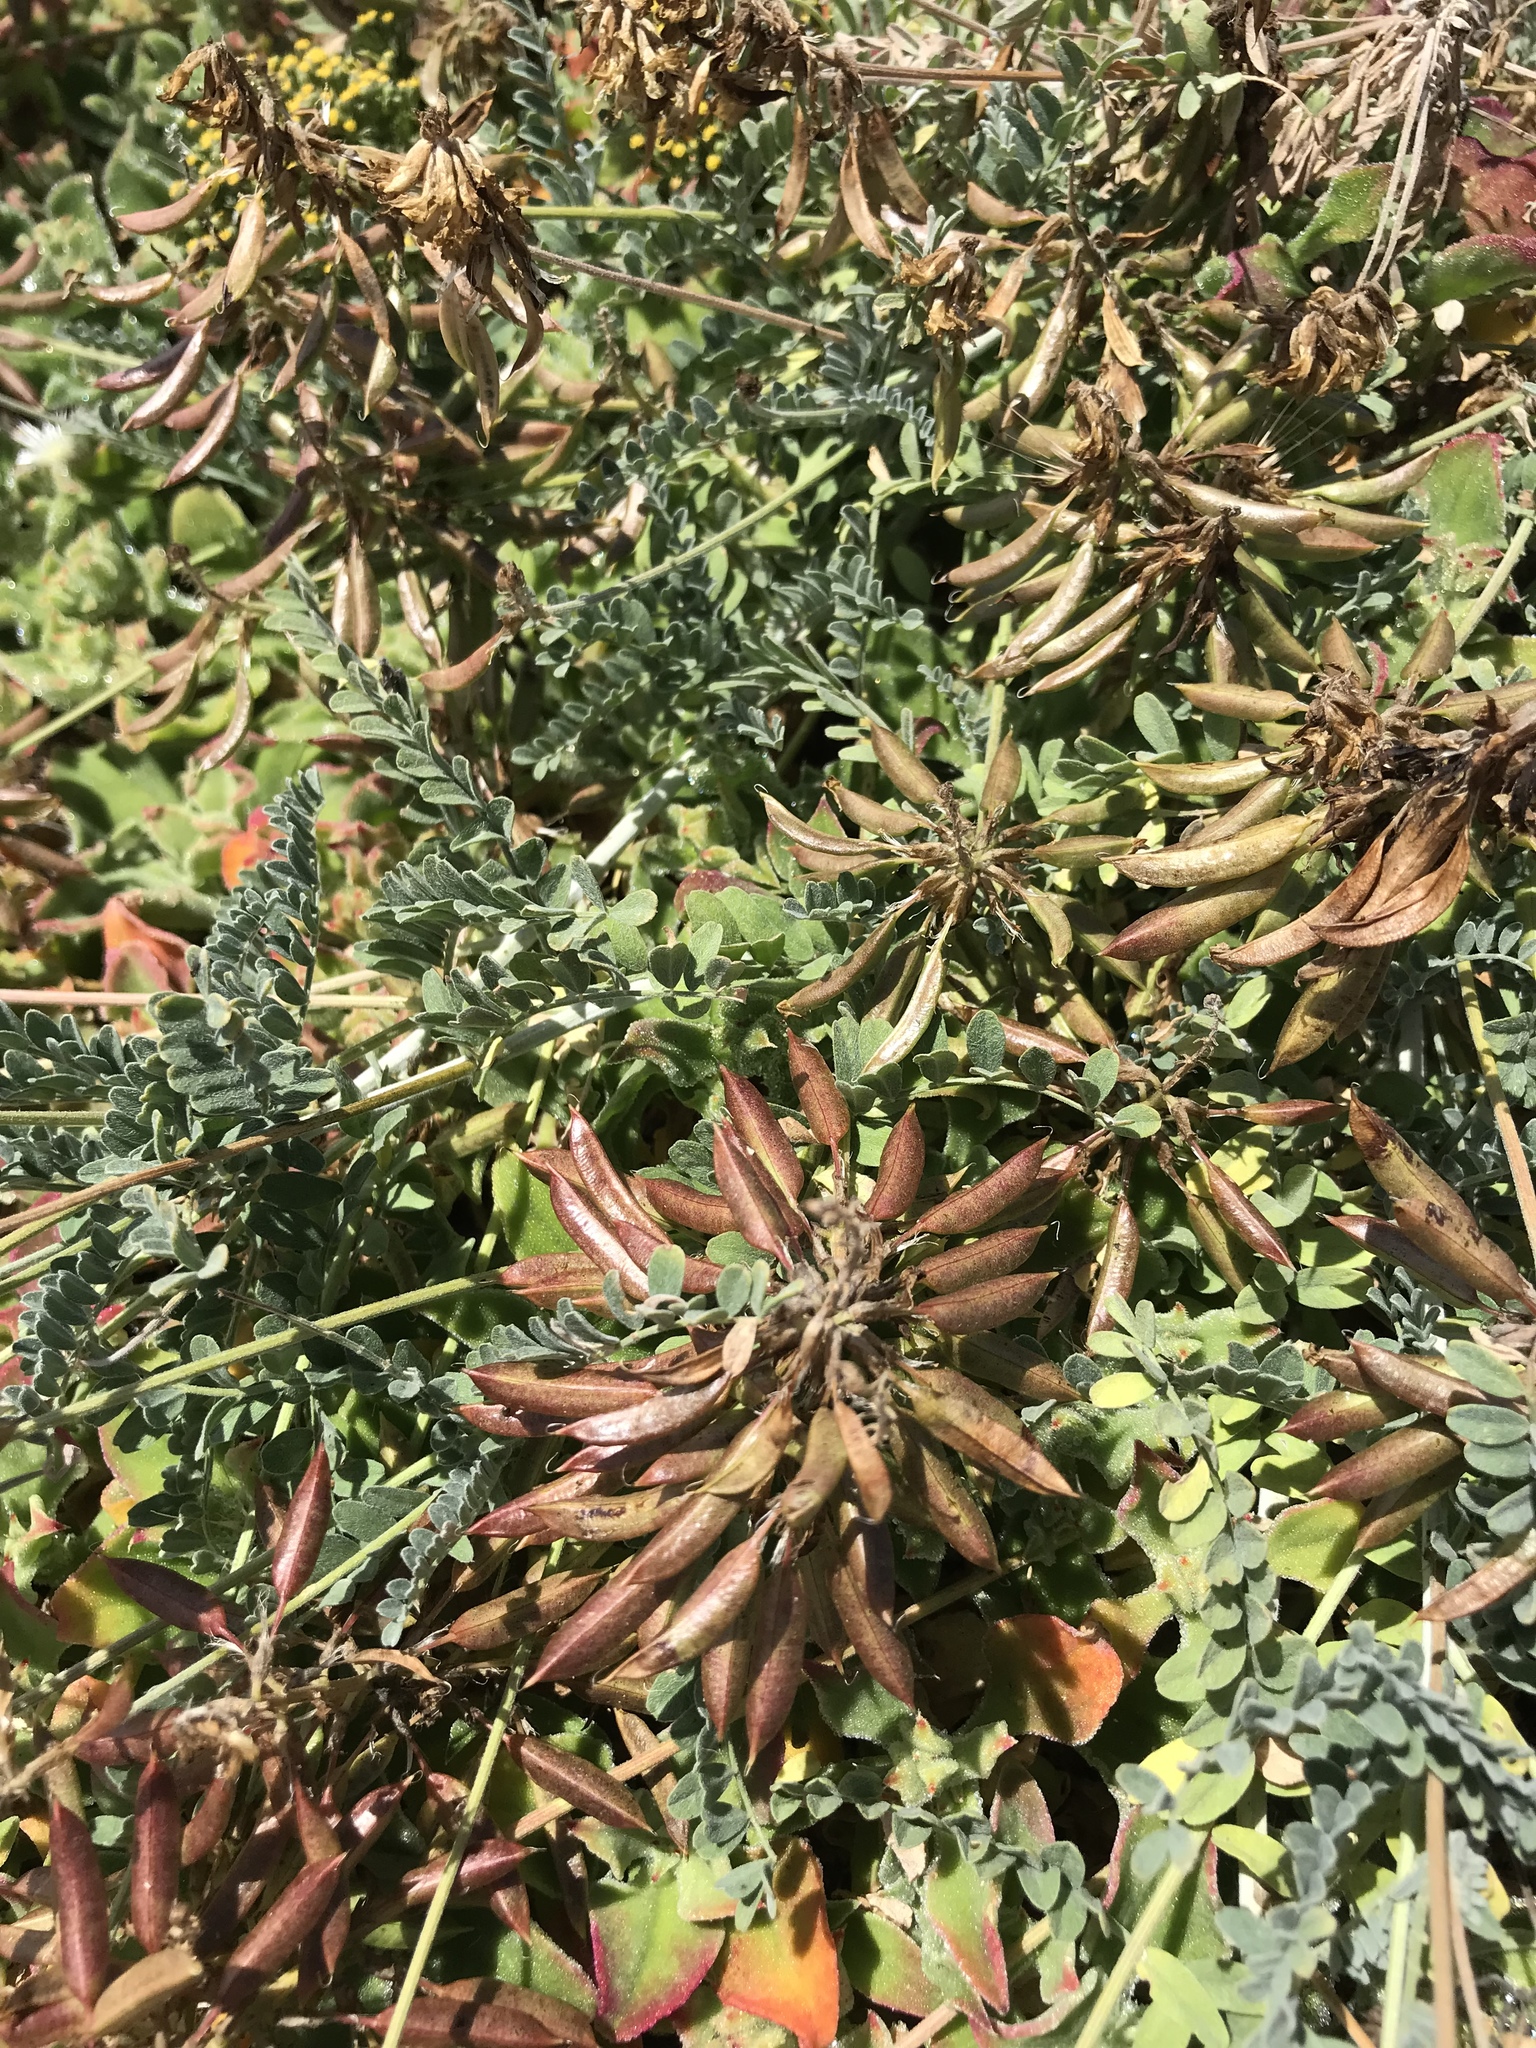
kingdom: Plantae
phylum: Tracheophyta
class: Magnoliopsida
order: Fabales
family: Fabaceae
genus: Astragalus
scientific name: Astragalus nevinii
